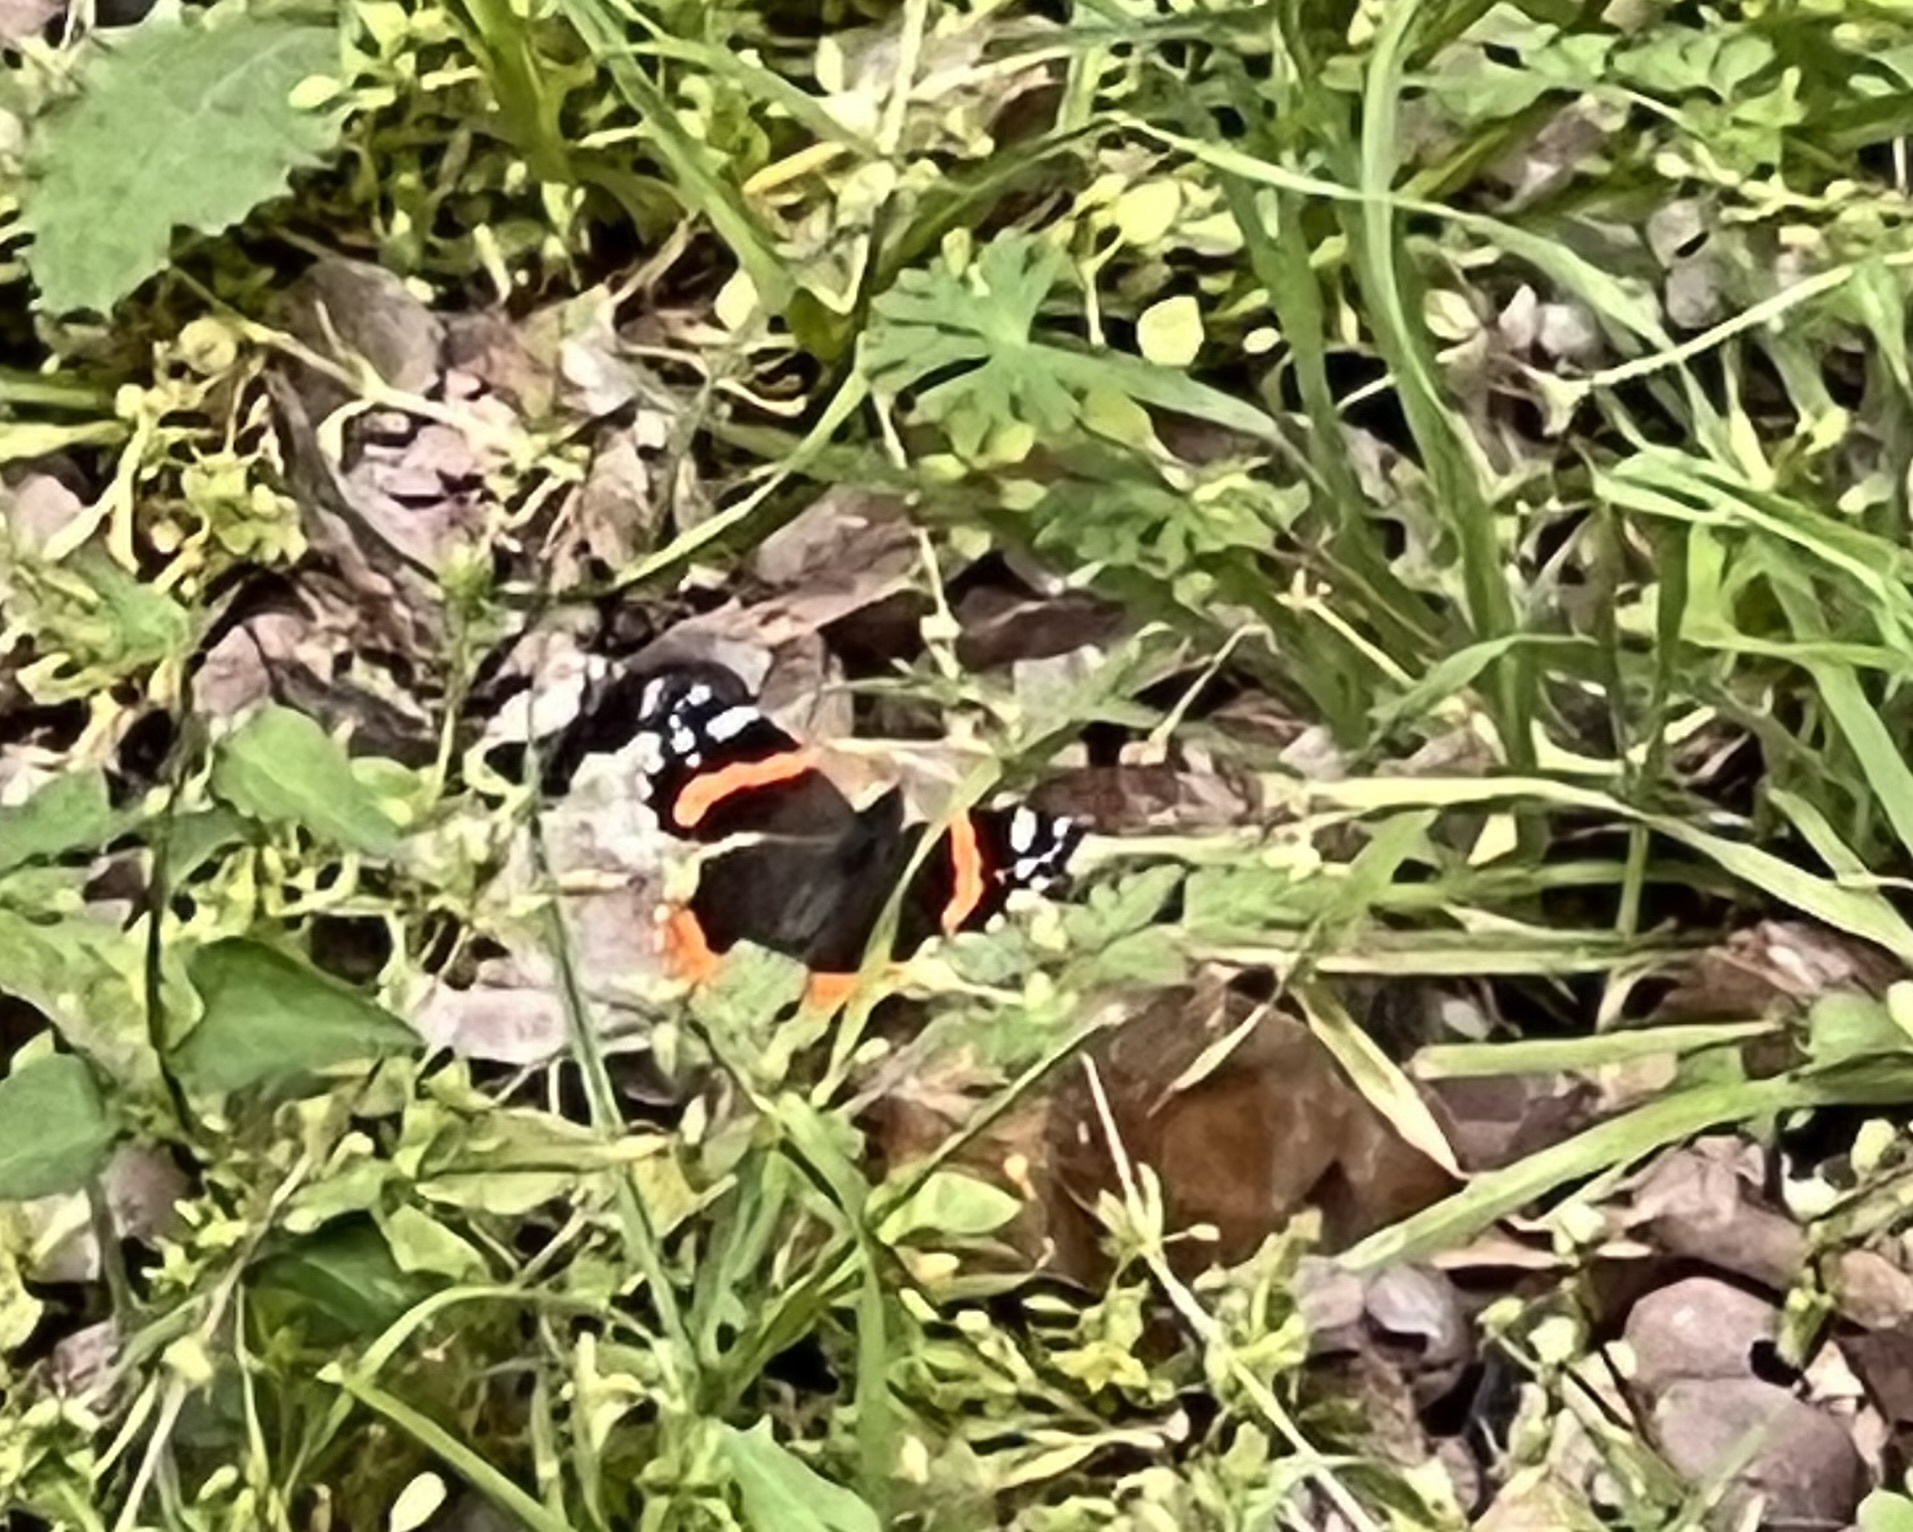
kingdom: Animalia
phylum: Arthropoda
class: Insecta
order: Lepidoptera
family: Nymphalidae
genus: Vanessa
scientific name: Vanessa atalanta
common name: Red admiral
